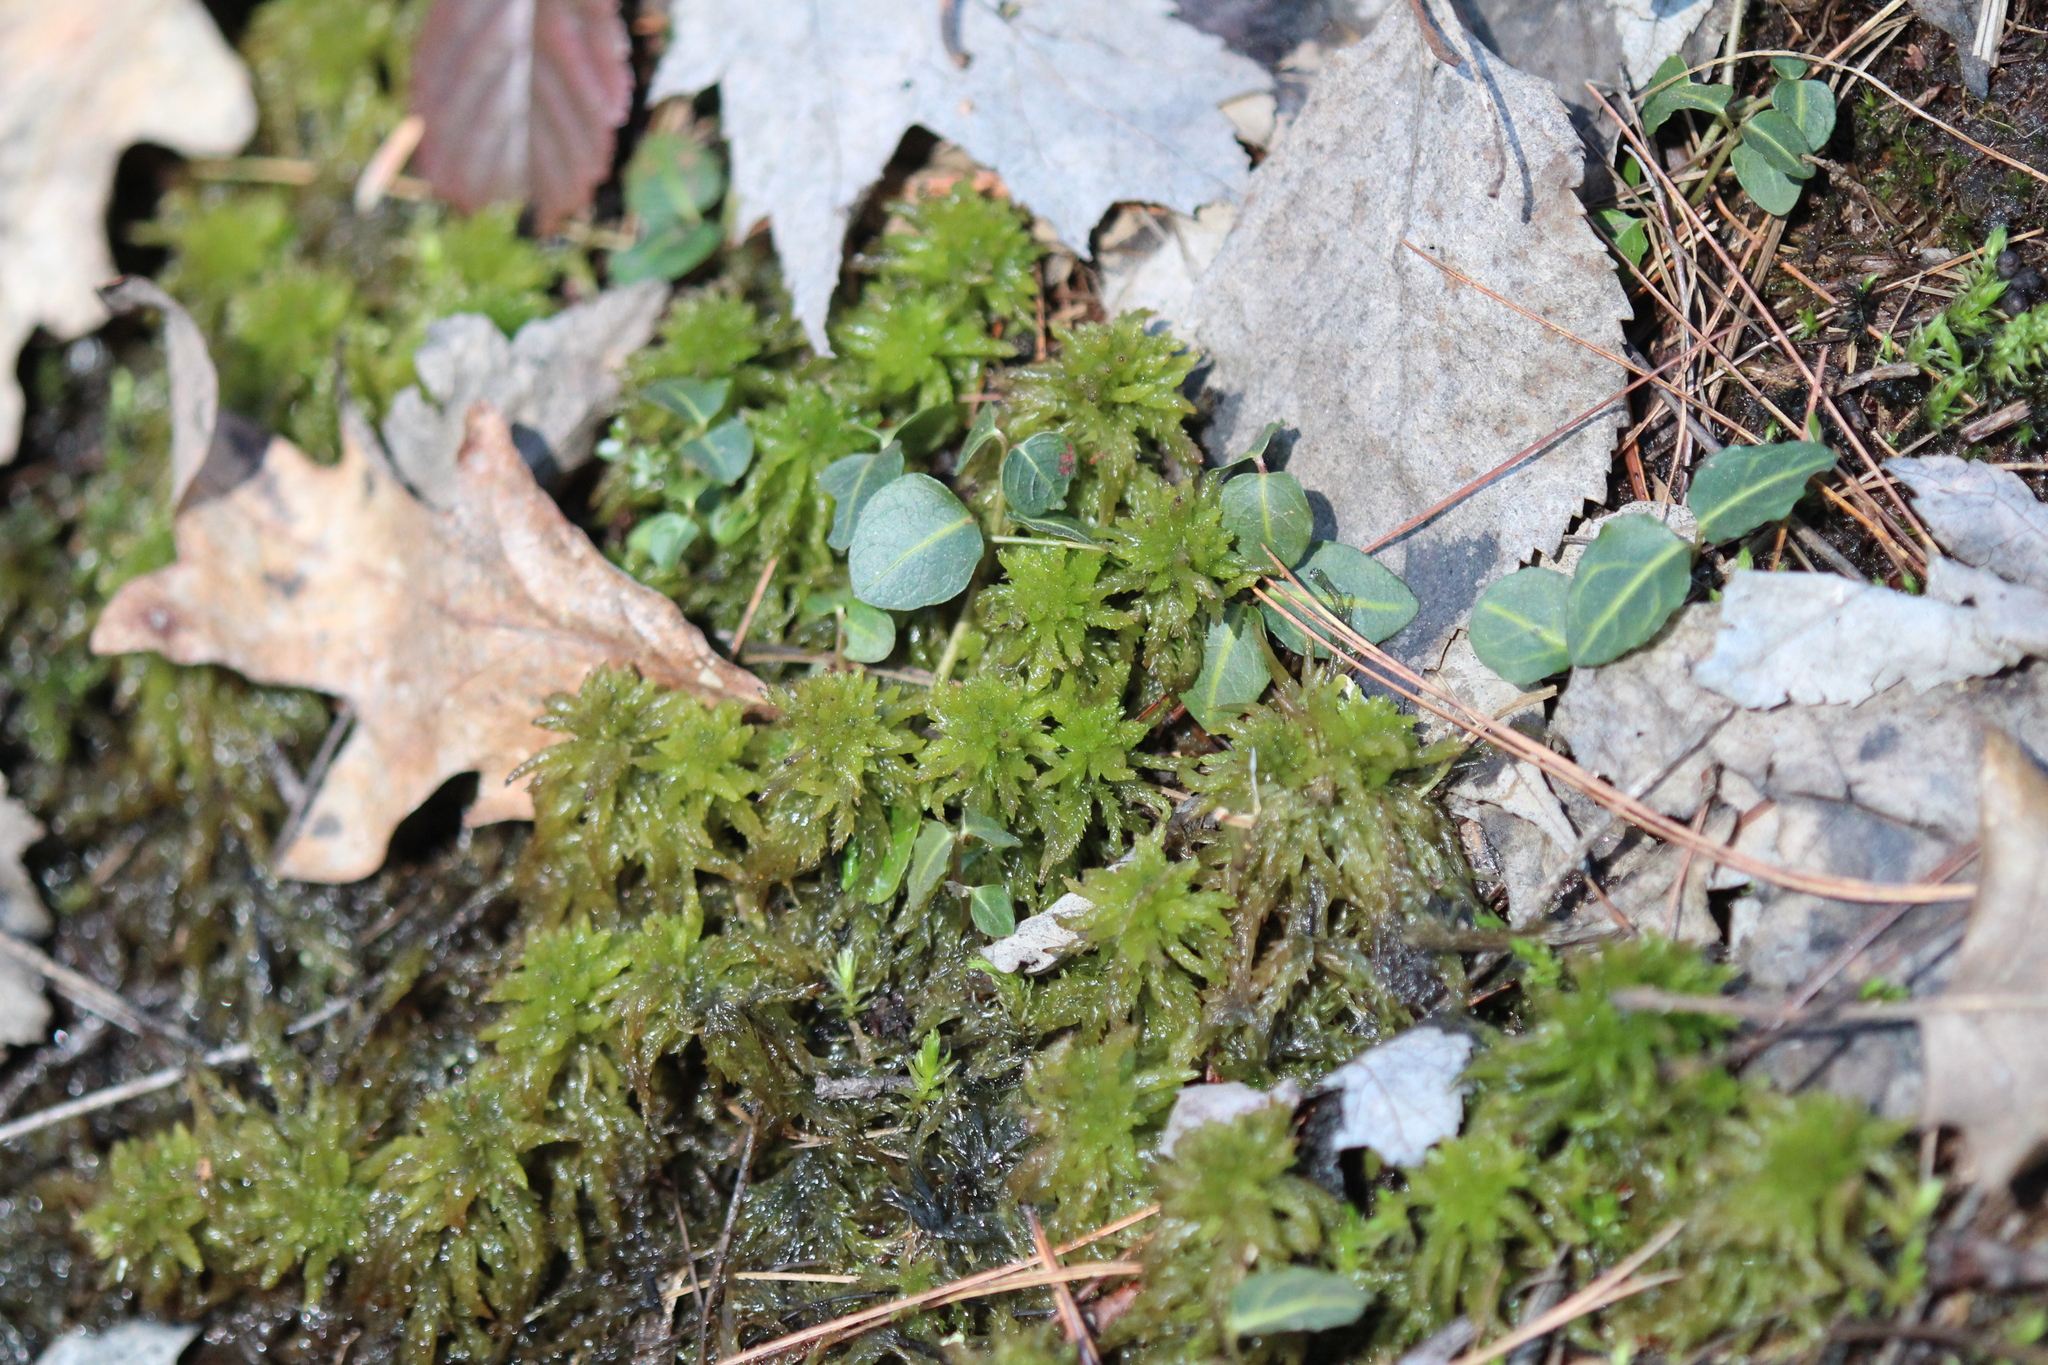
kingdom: Plantae
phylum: Tracheophyta
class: Magnoliopsida
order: Gentianales
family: Rubiaceae
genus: Mitchella
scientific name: Mitchella repens
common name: Partridge-berry
